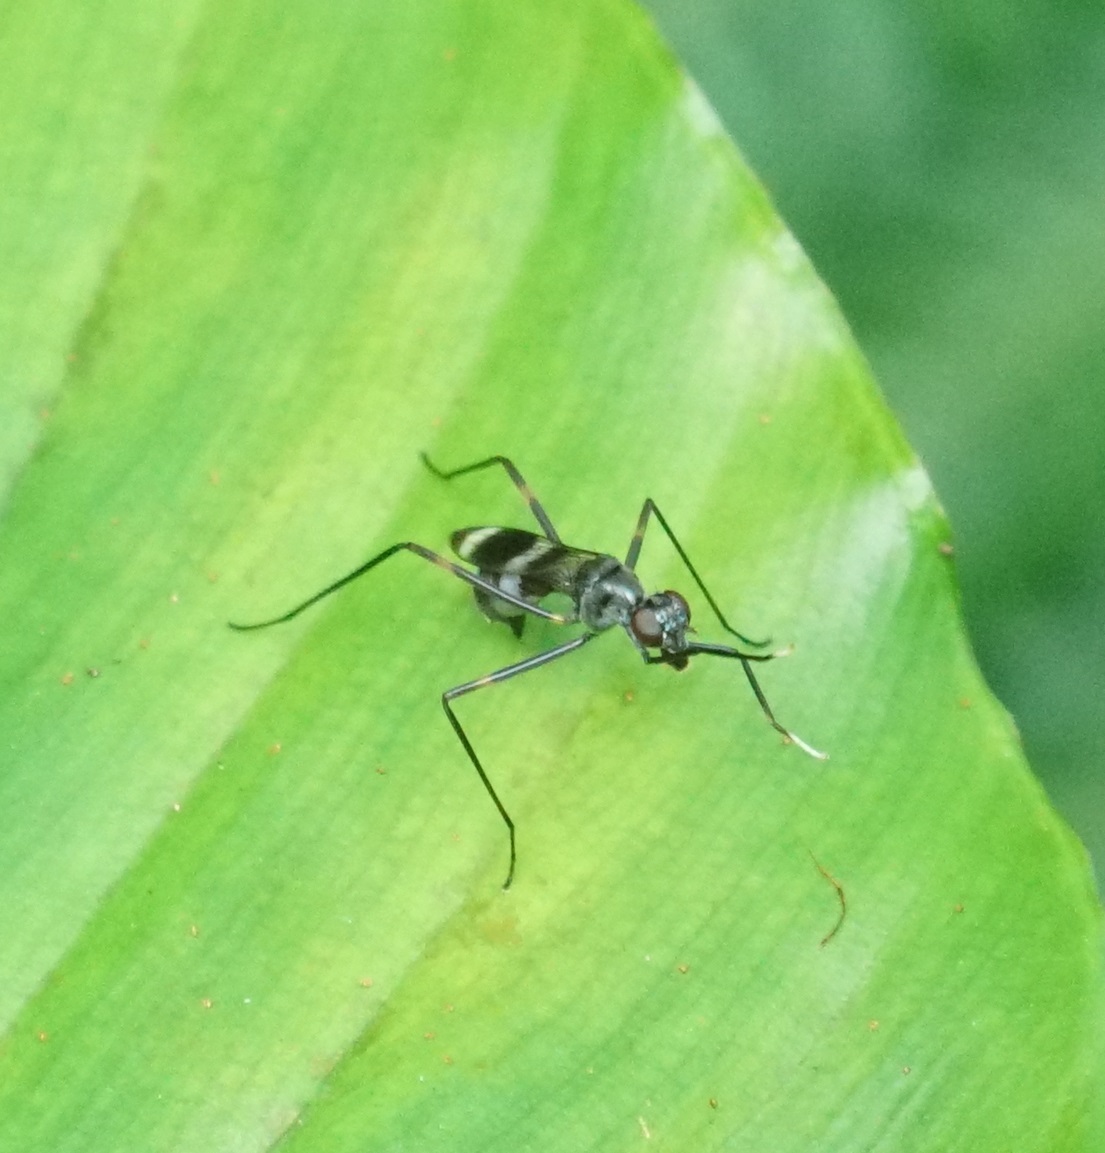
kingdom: Animalia
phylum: Arthropoda
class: Insecta
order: Diptera
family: Micropezidae
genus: Mimegralla
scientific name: Mimegralla australica
